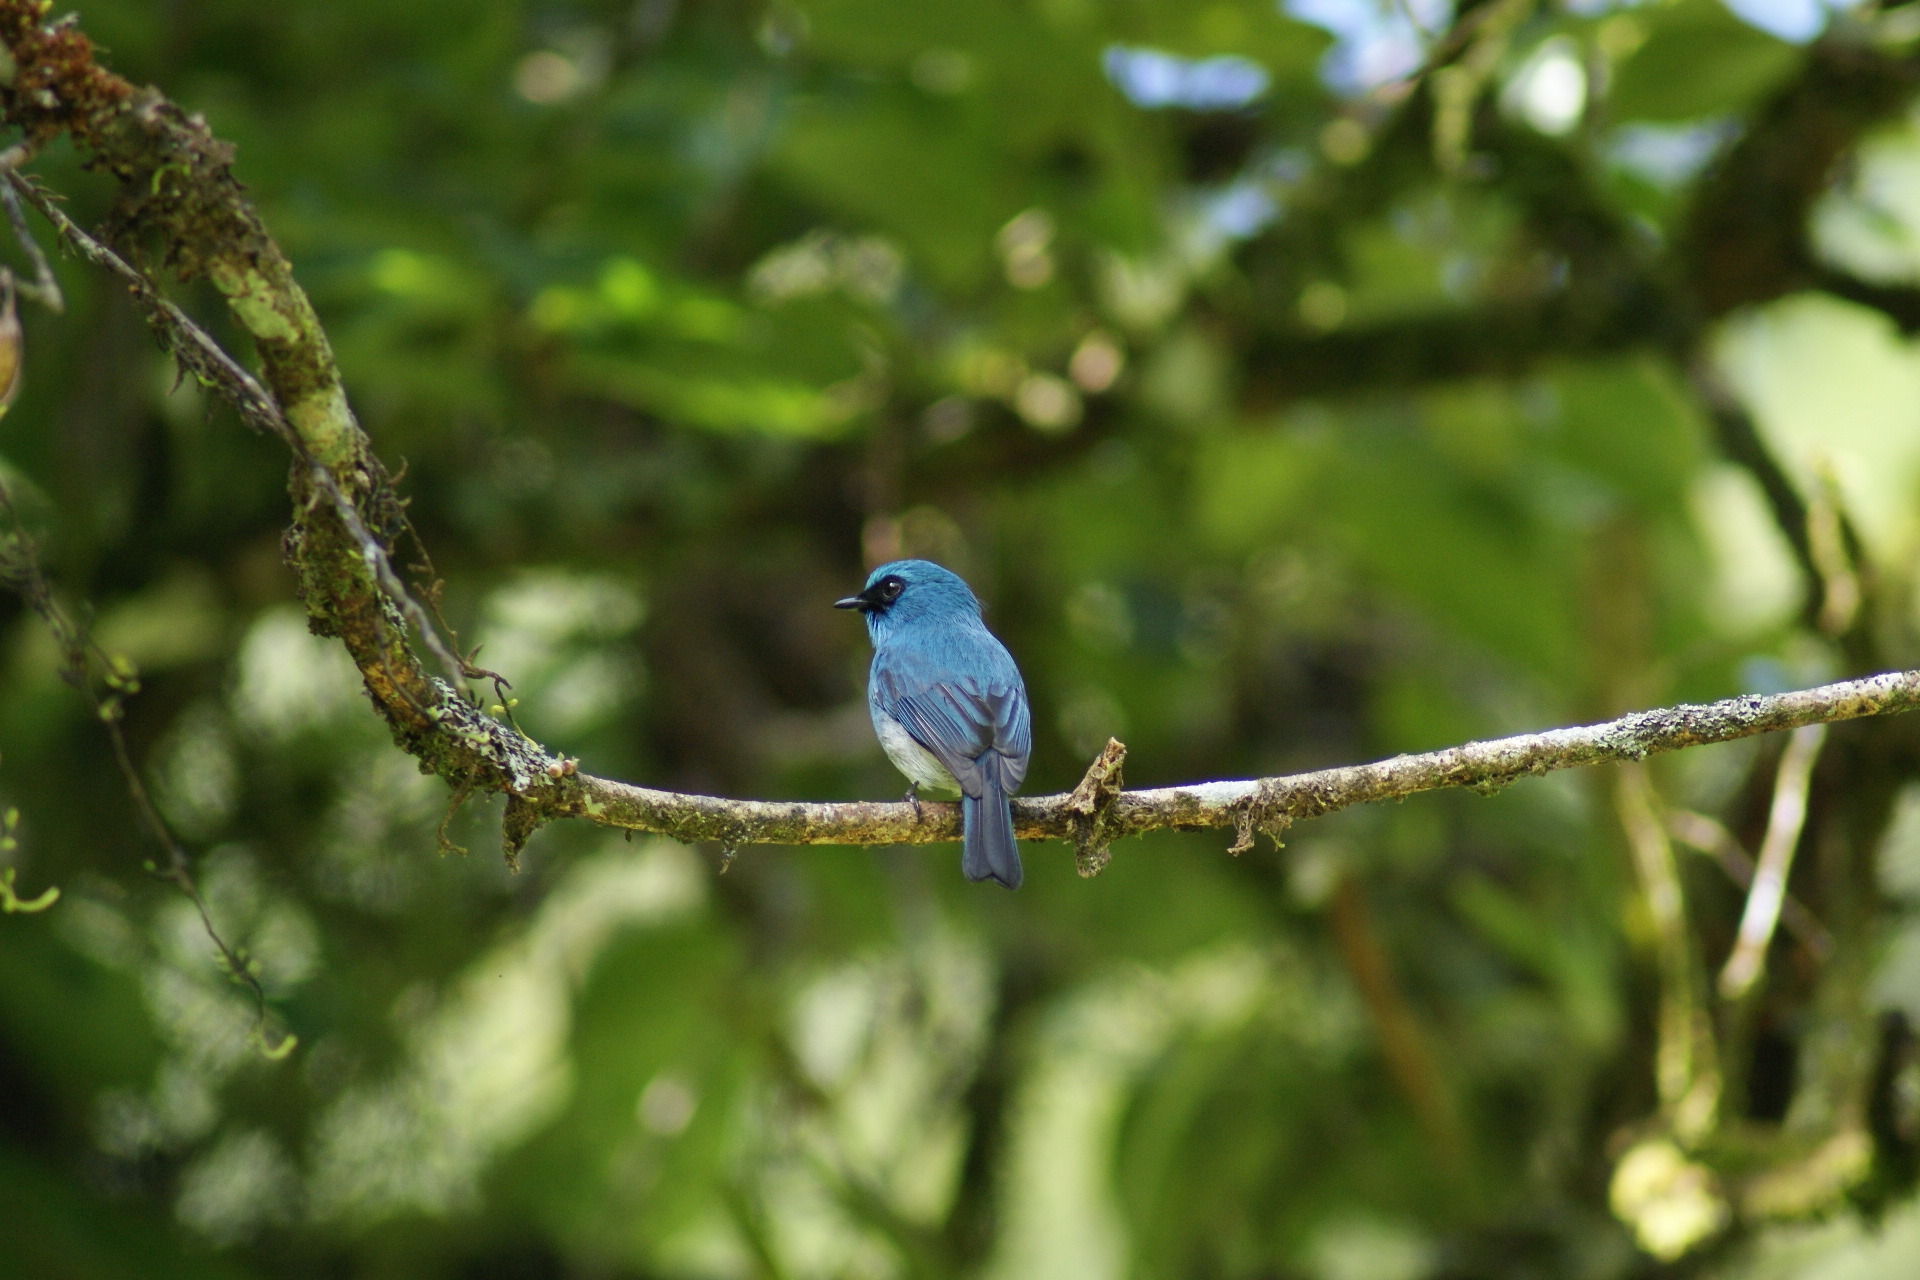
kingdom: Animalia
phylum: Chordata
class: Aves
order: Passeriformes
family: Muscicapidae
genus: Eumyias
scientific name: Eumyias indigo
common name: Indigo flycatcher
